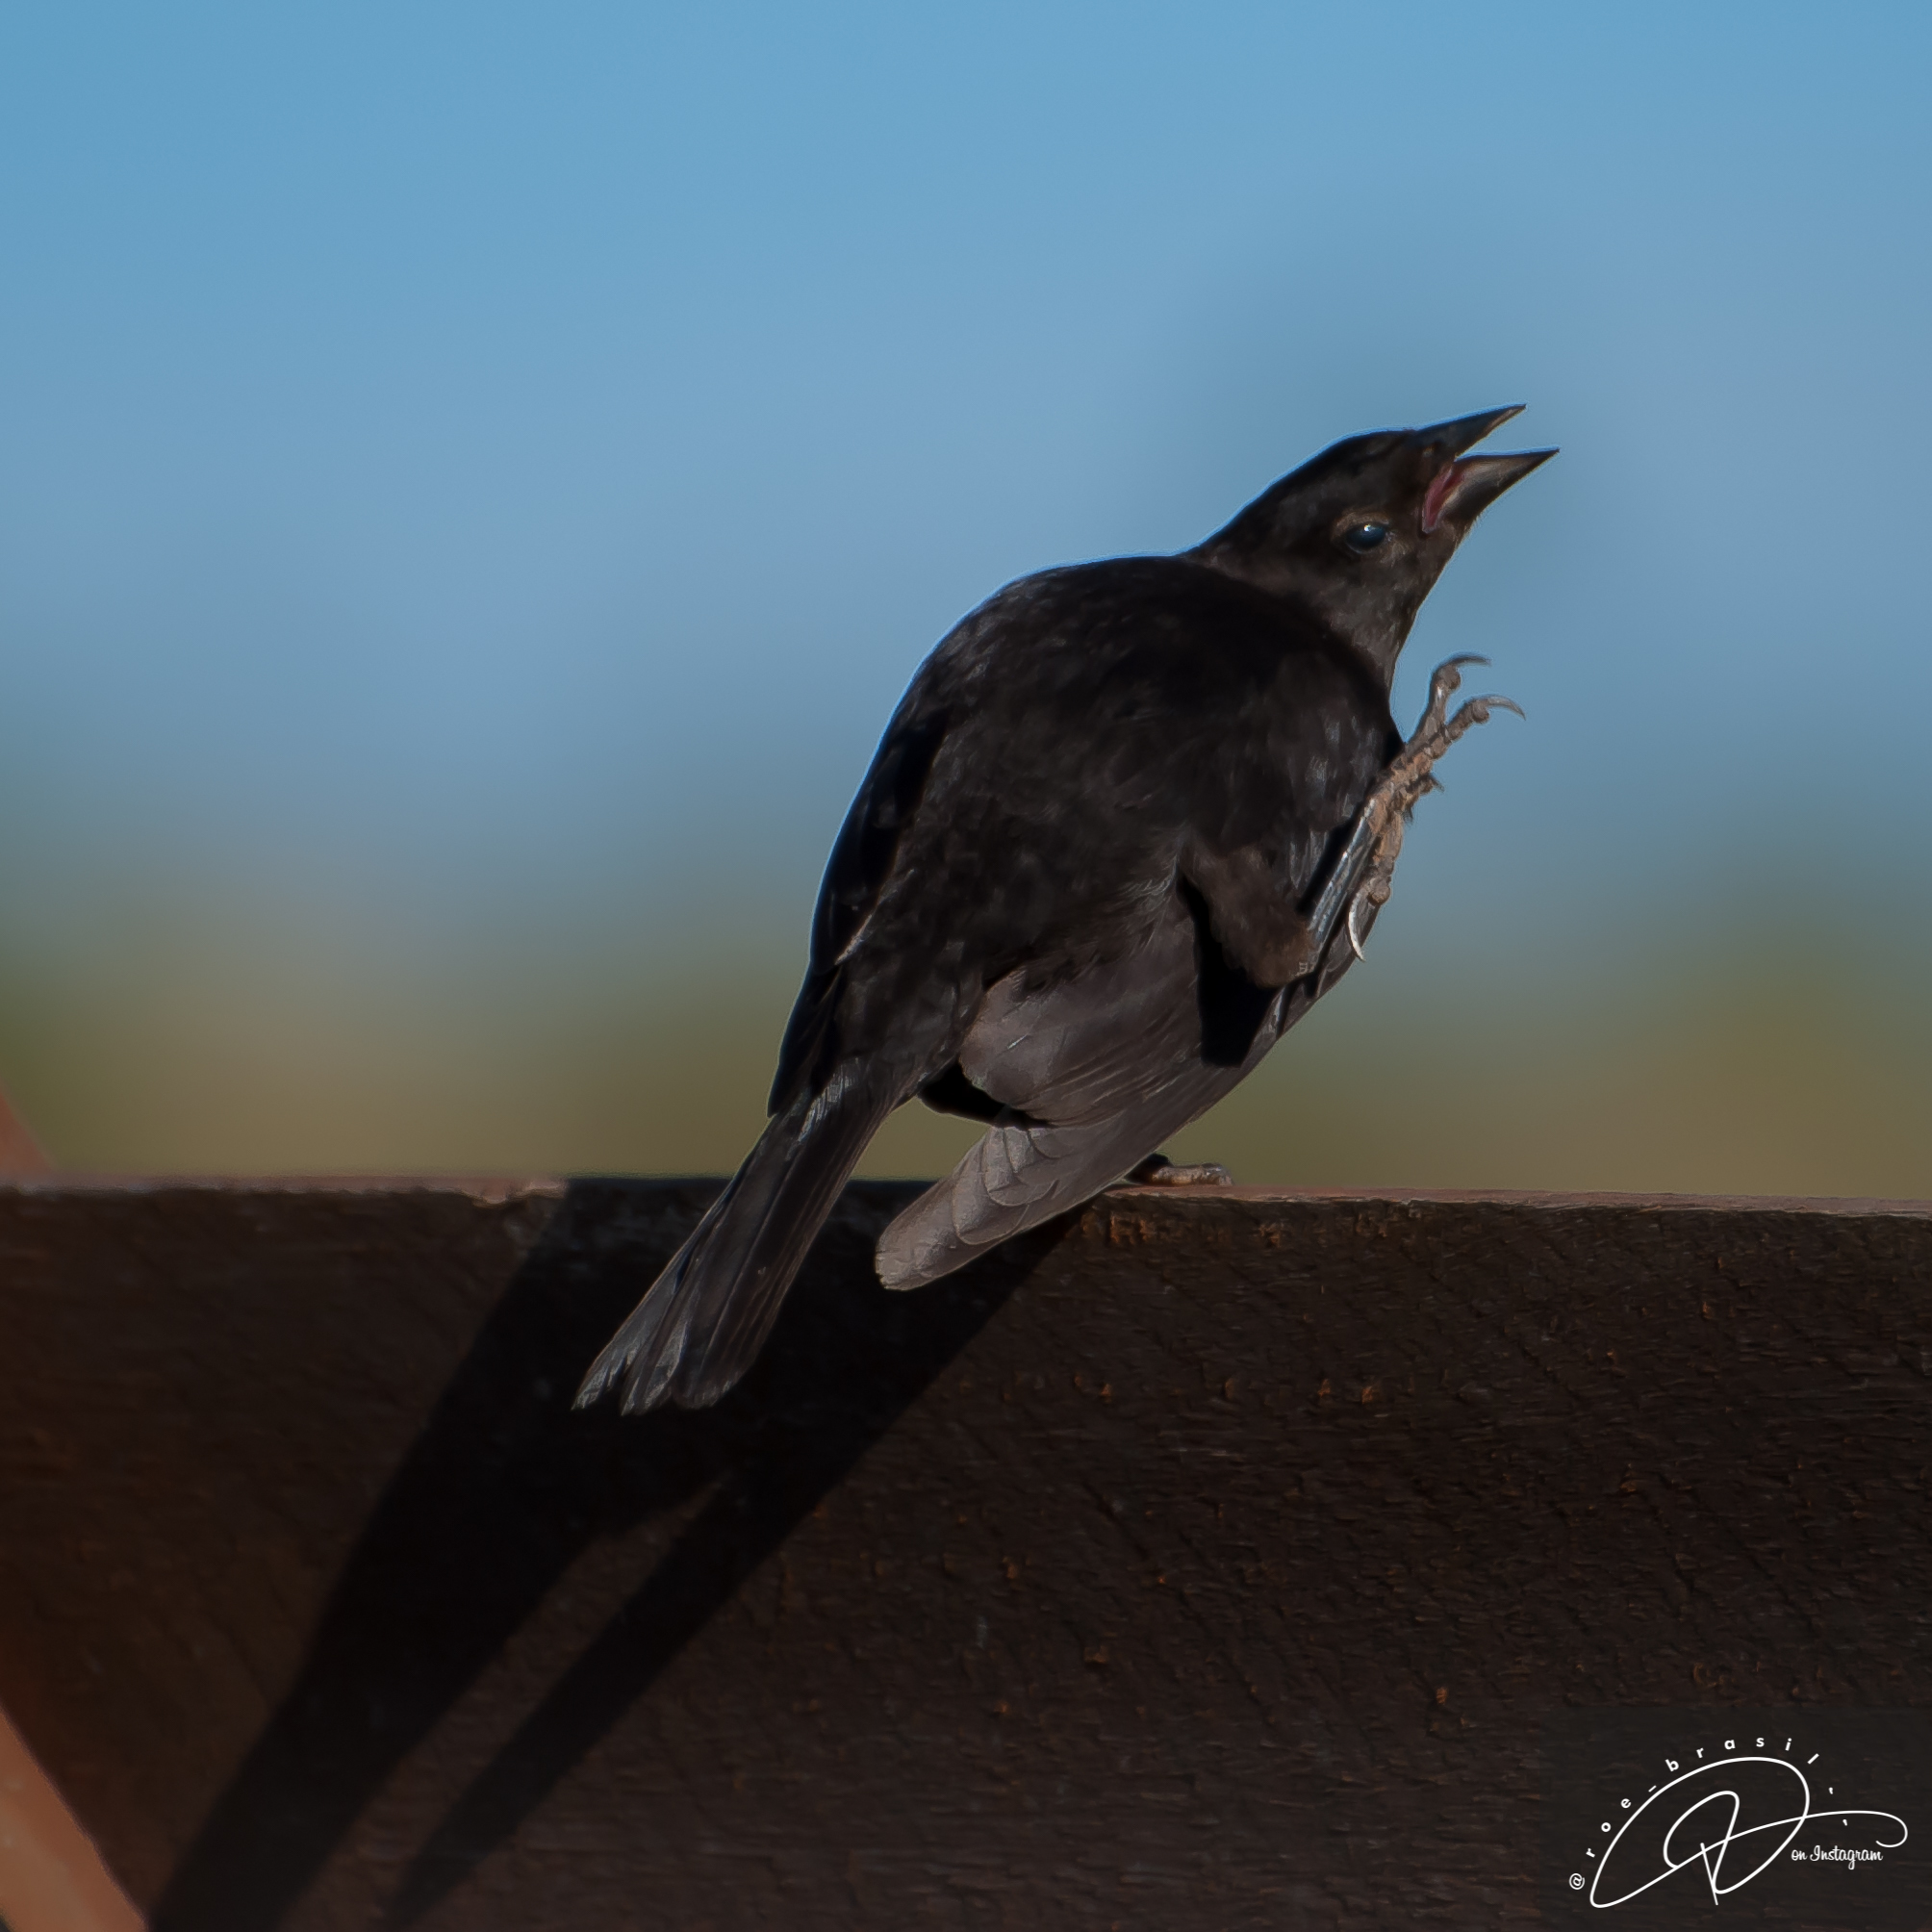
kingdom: Animalia
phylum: Chordata
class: Aves
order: Passeriformes
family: Icteridae
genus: Molothrus
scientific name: Molothrus bonariensis
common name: Shiny cowbird
